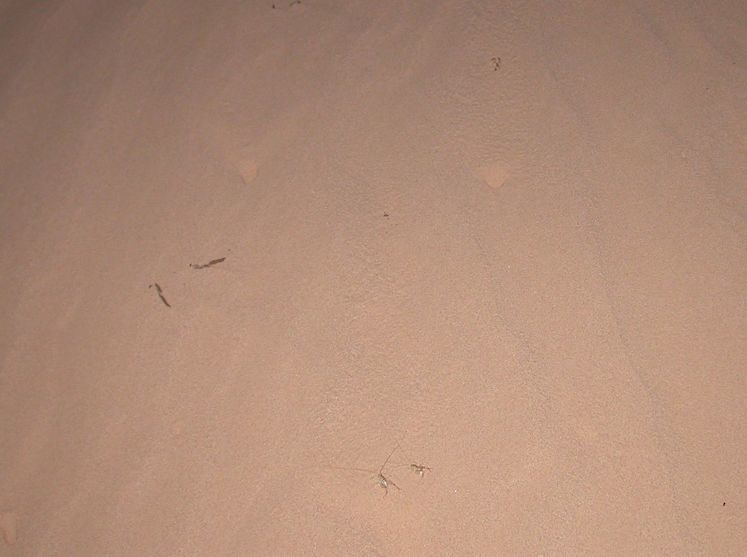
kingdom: Animalia
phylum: Arthropoda
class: Insecta
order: Orthoptera
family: Rhaphidophoridae
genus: Macrobaenetes
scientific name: Macrobaenetes algodonensis
